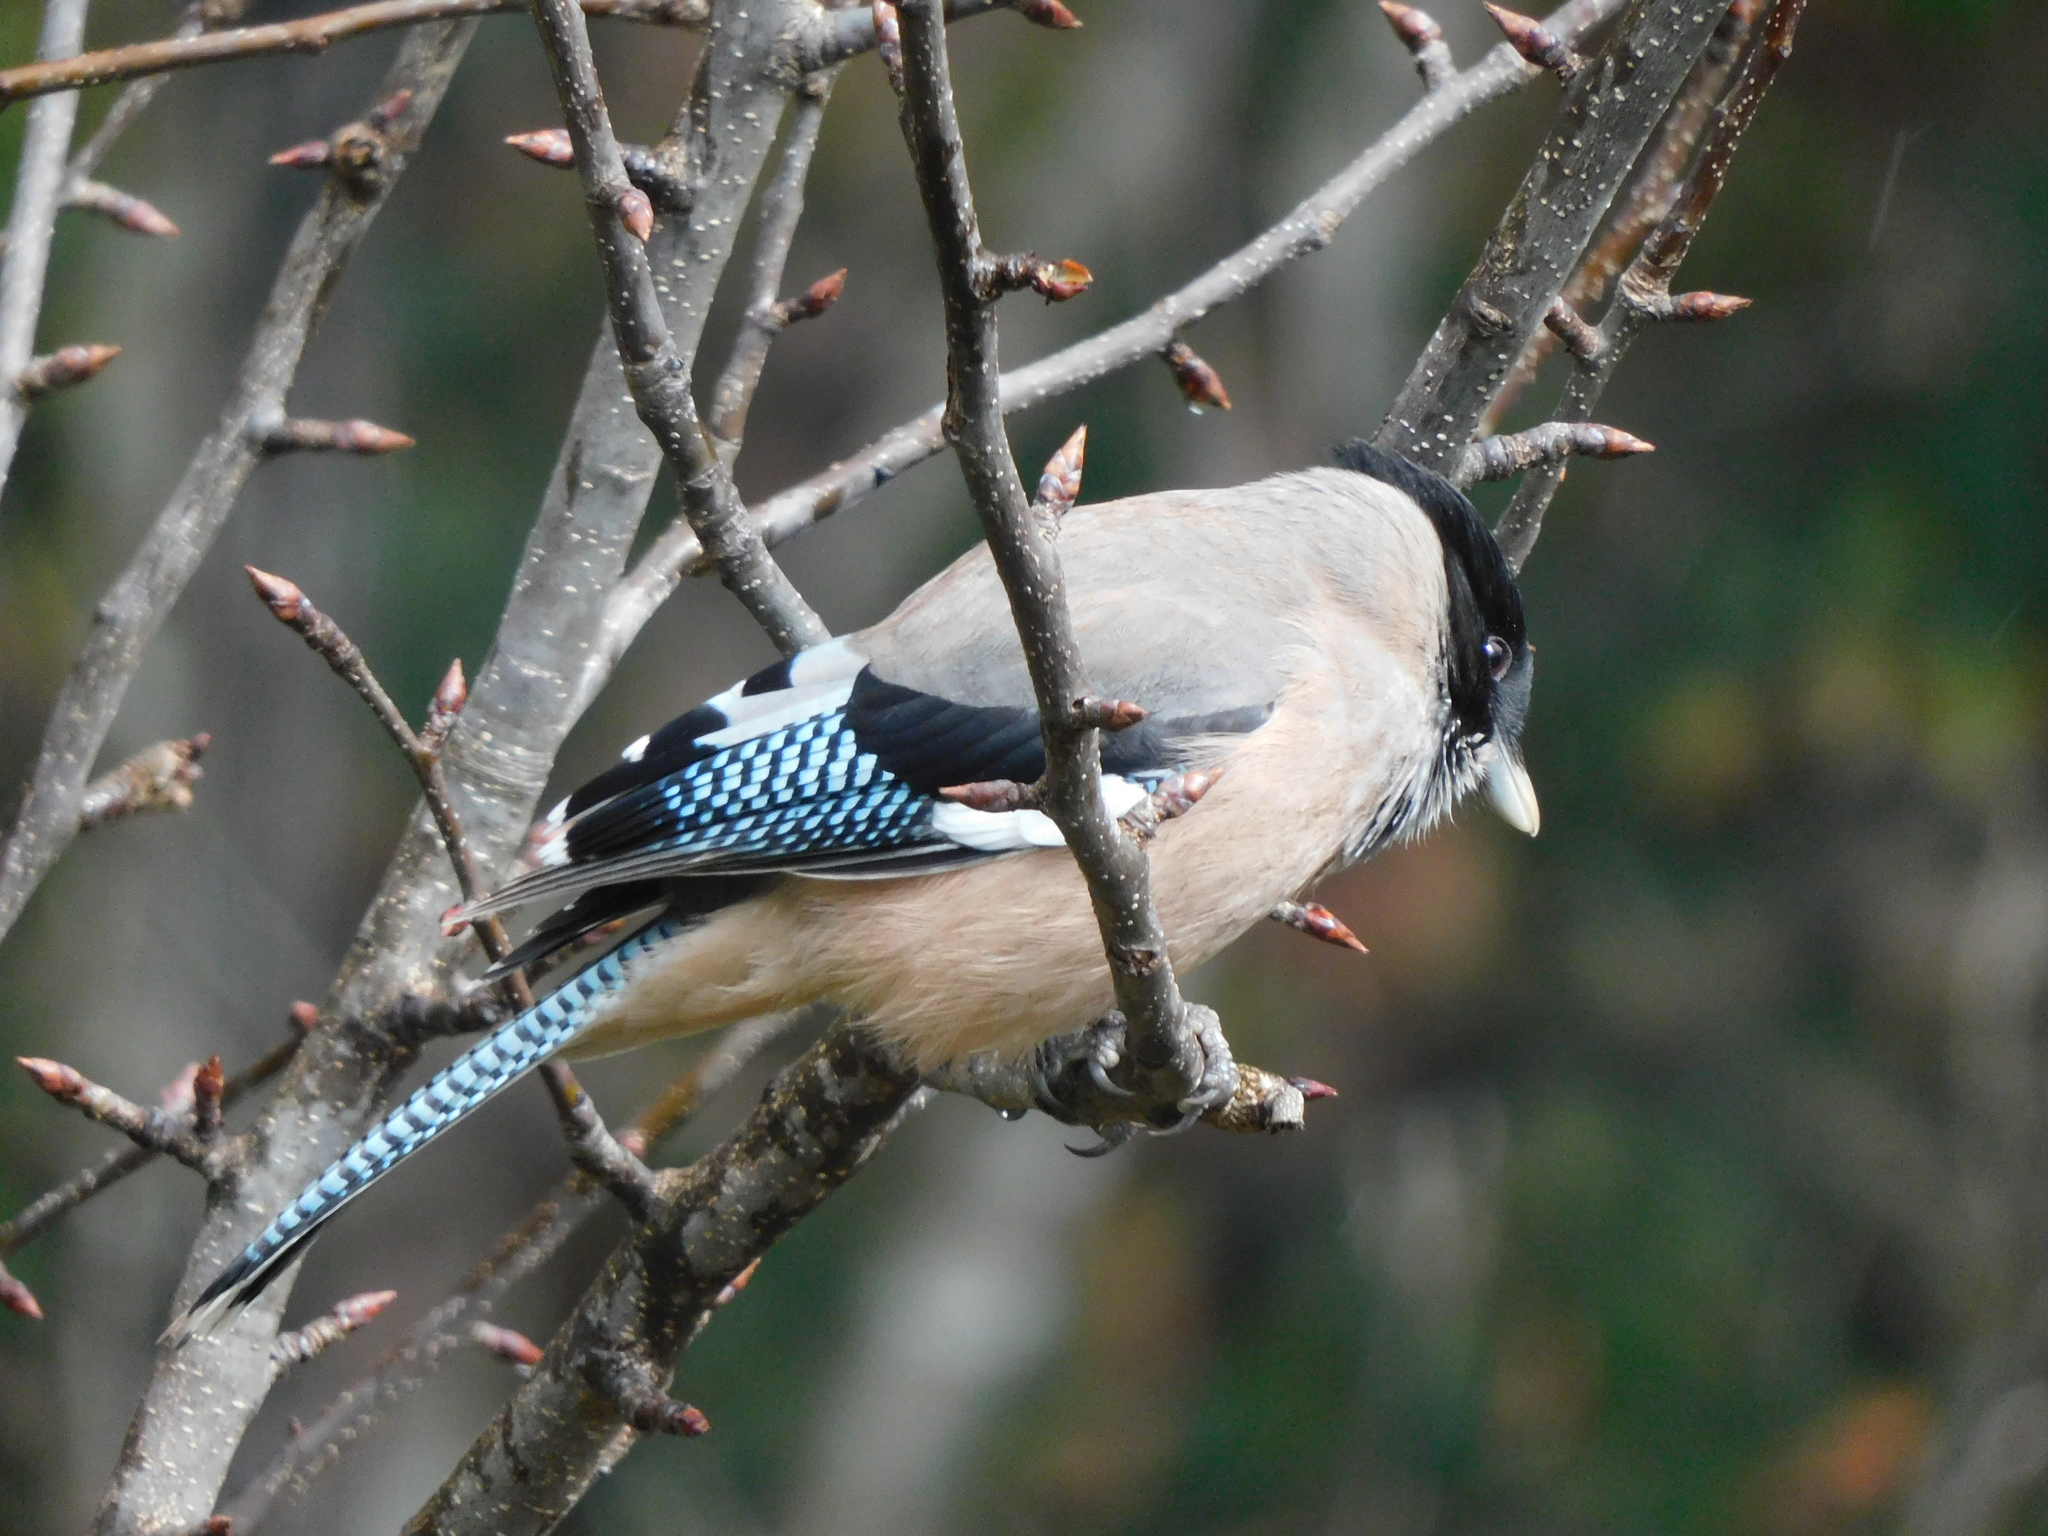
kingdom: Animalia
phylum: Chordata
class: Aves
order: Passeriformes
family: Corvidae
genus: Garrulus
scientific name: Garrulus lanceolatus
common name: Black-headed jay
